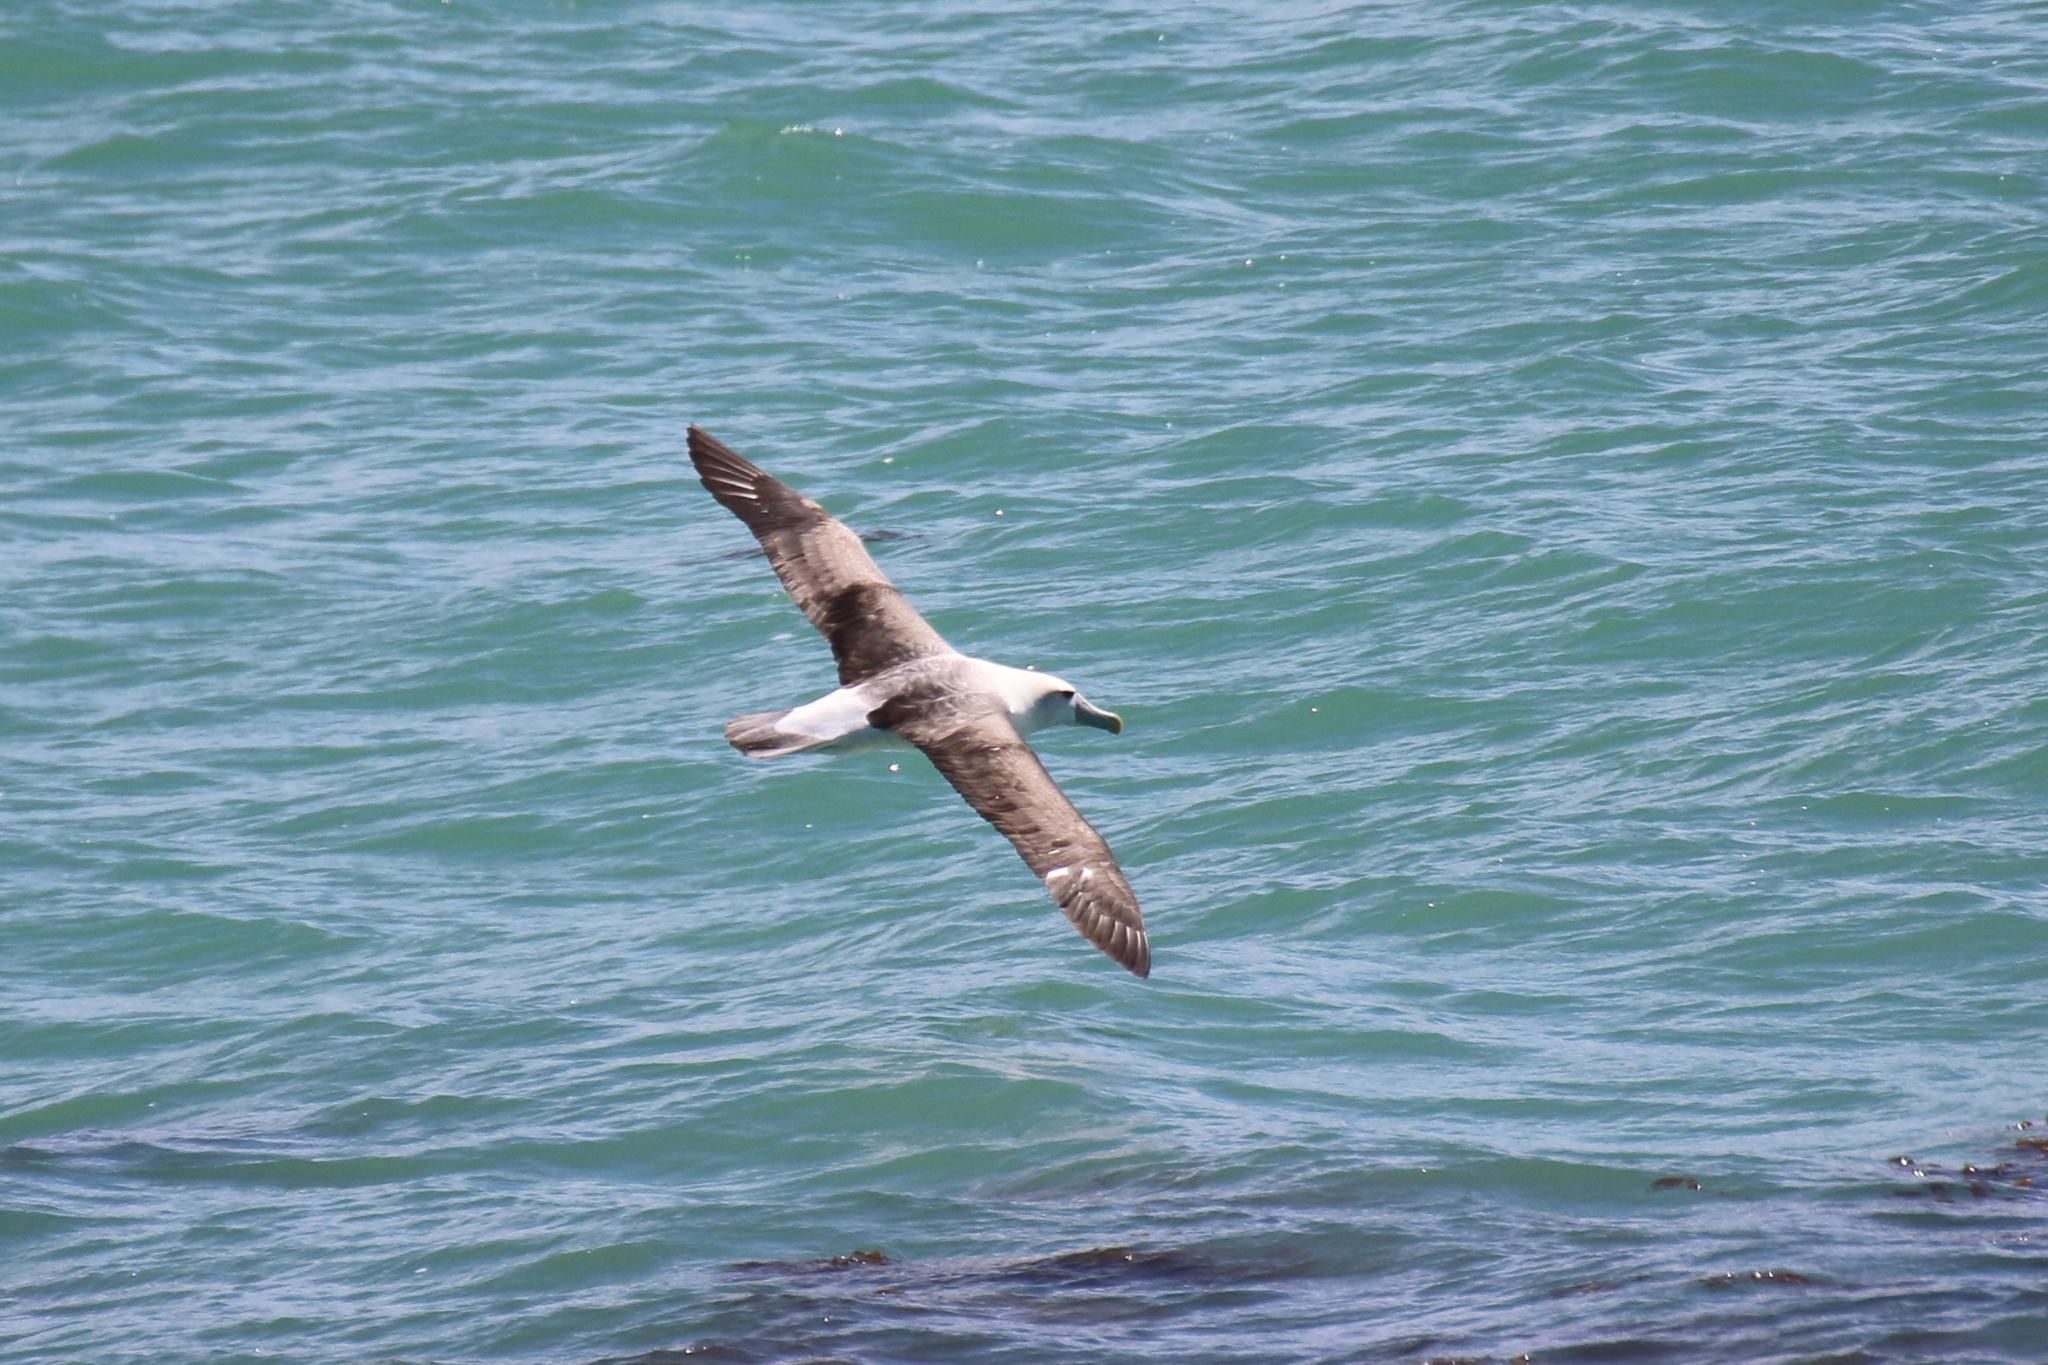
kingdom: Animalia
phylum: Chordata
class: Aves
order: Procellariiformes
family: Diomedeidae
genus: Thalassarche
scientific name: Thalassarche cauta
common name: Shy albatross
